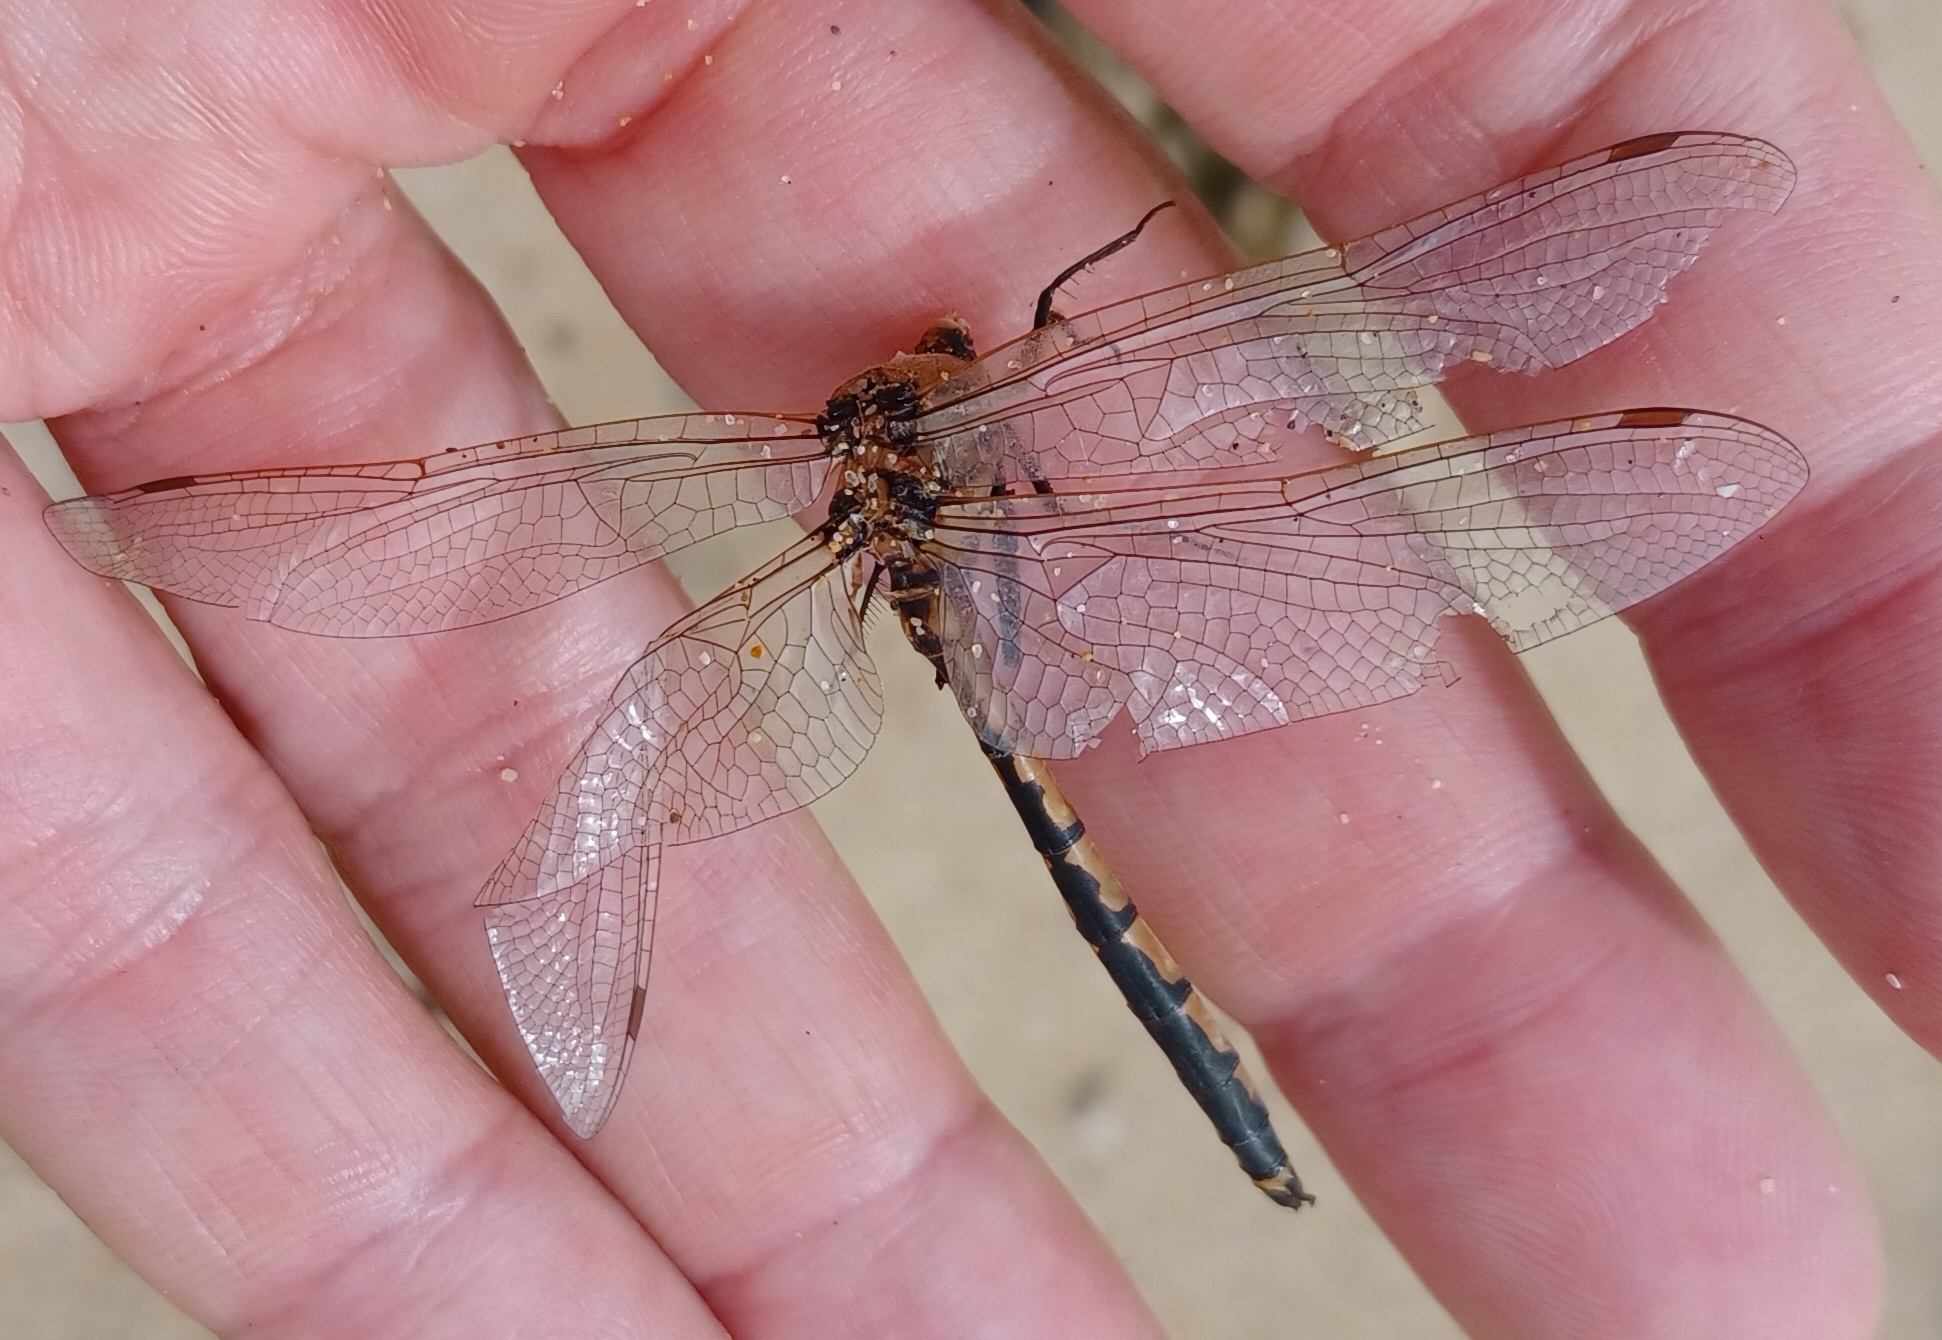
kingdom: Animalia
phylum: Arthropoda
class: Insecta
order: Odonata
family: Corduliidae
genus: Hemicordulia
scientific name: Hemicordulia tau
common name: Tau emerald
